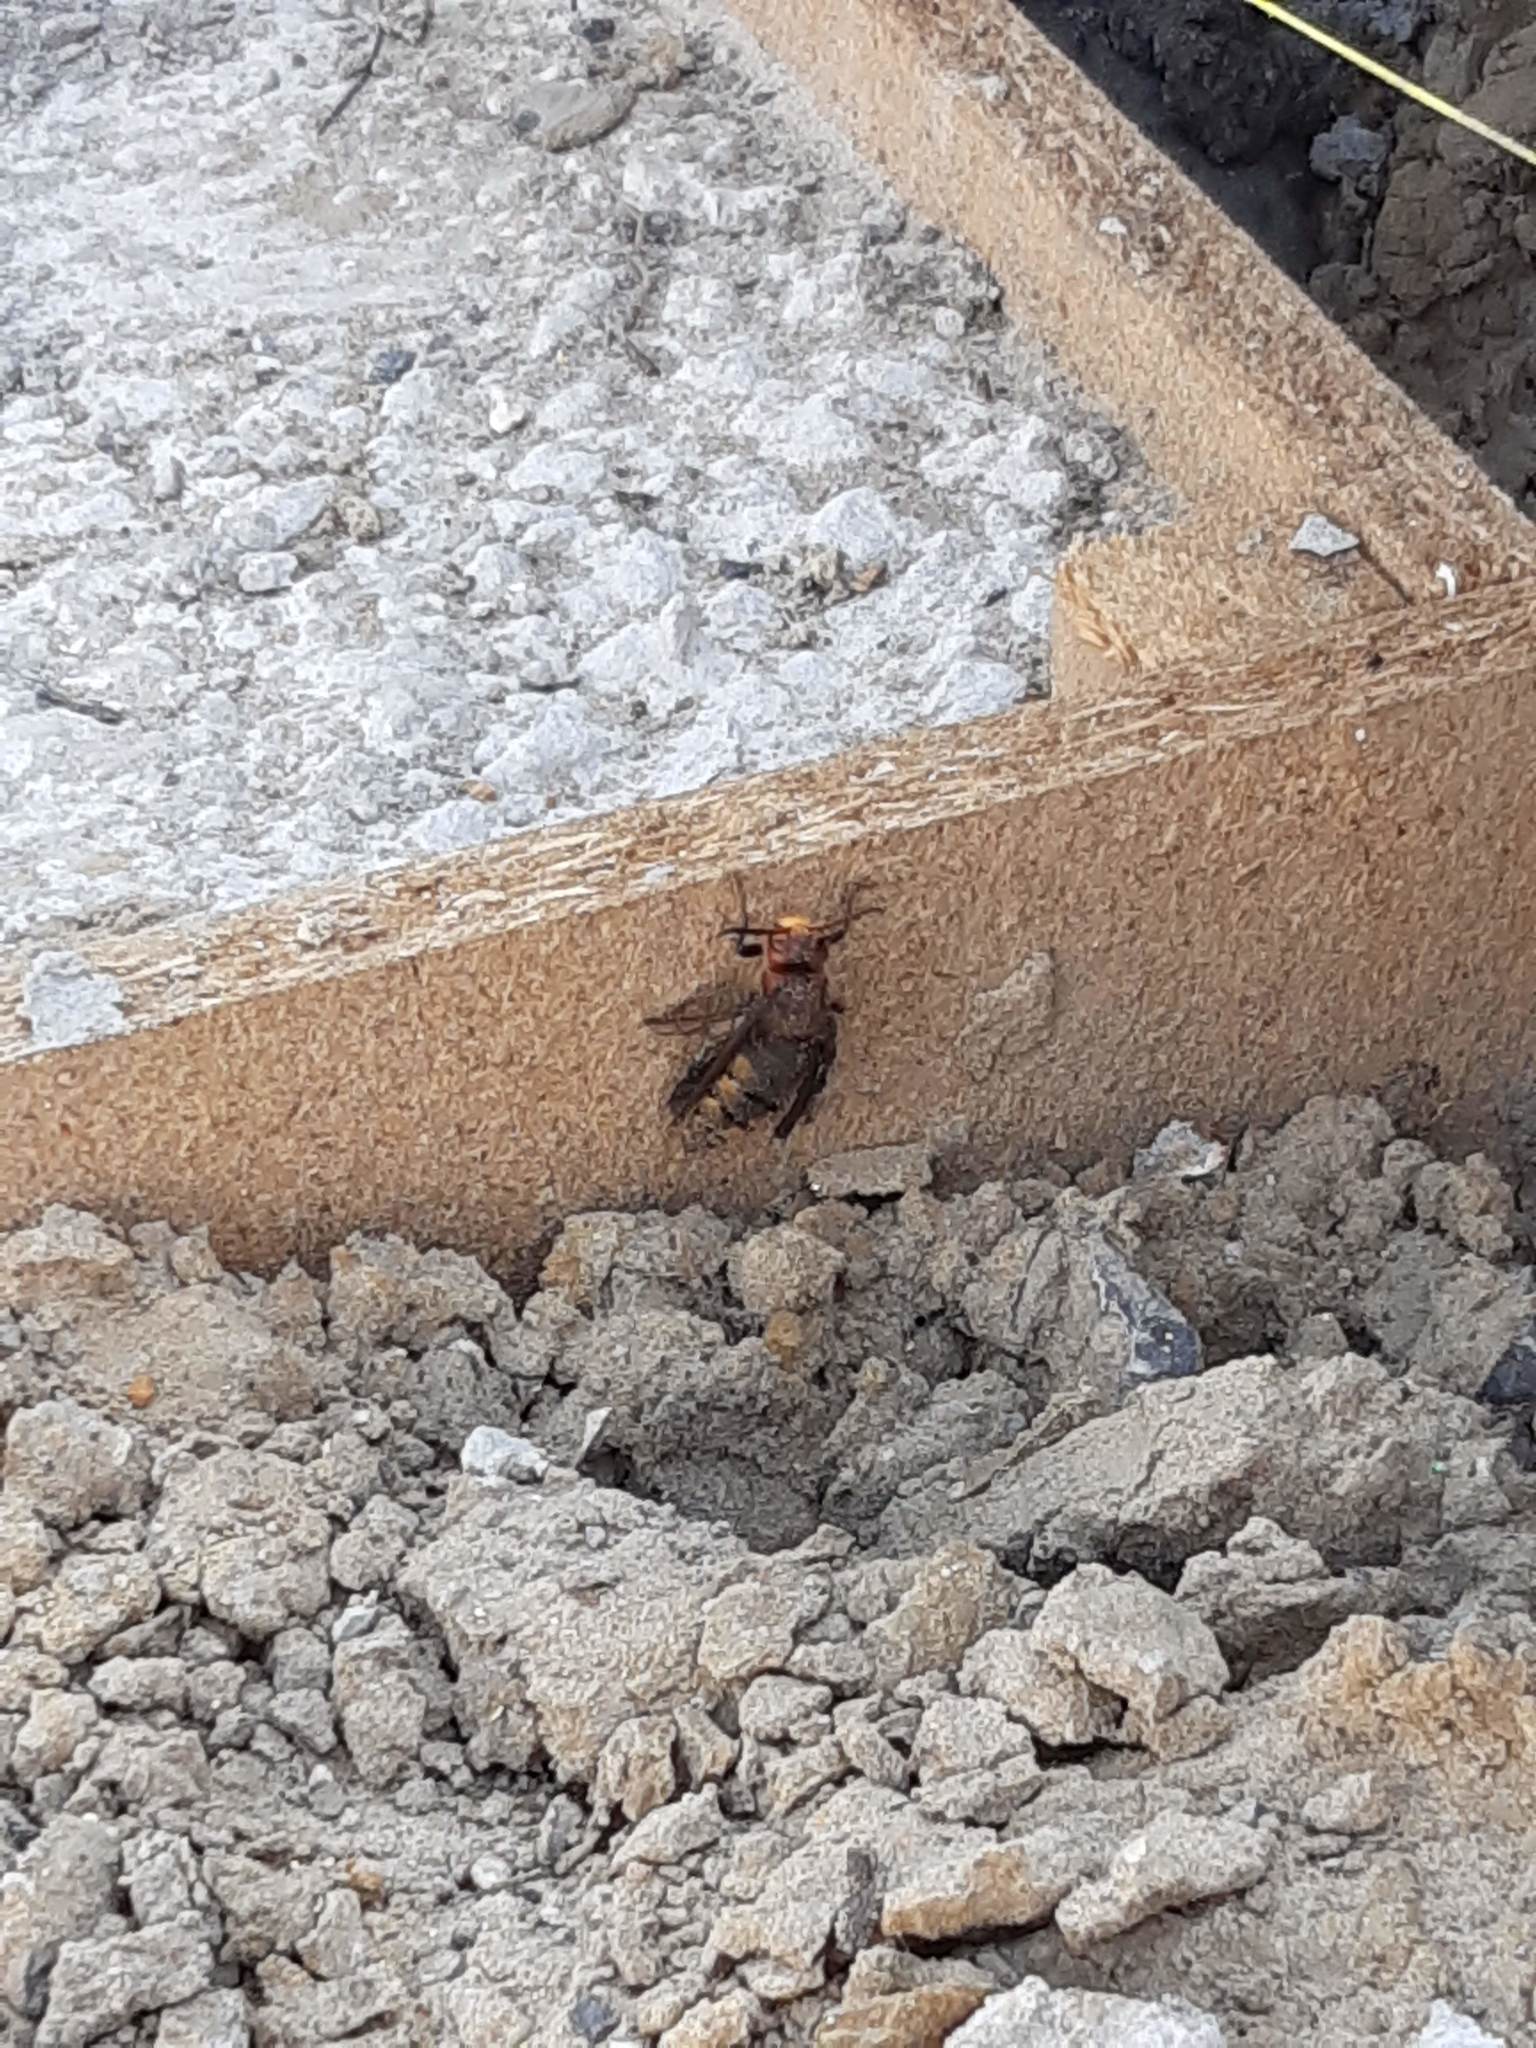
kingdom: Animalia
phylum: Arthropoda
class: Insecta
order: Hymenoptera
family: Vespidae
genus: Vespa
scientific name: Vespa crabro
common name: Hornet
